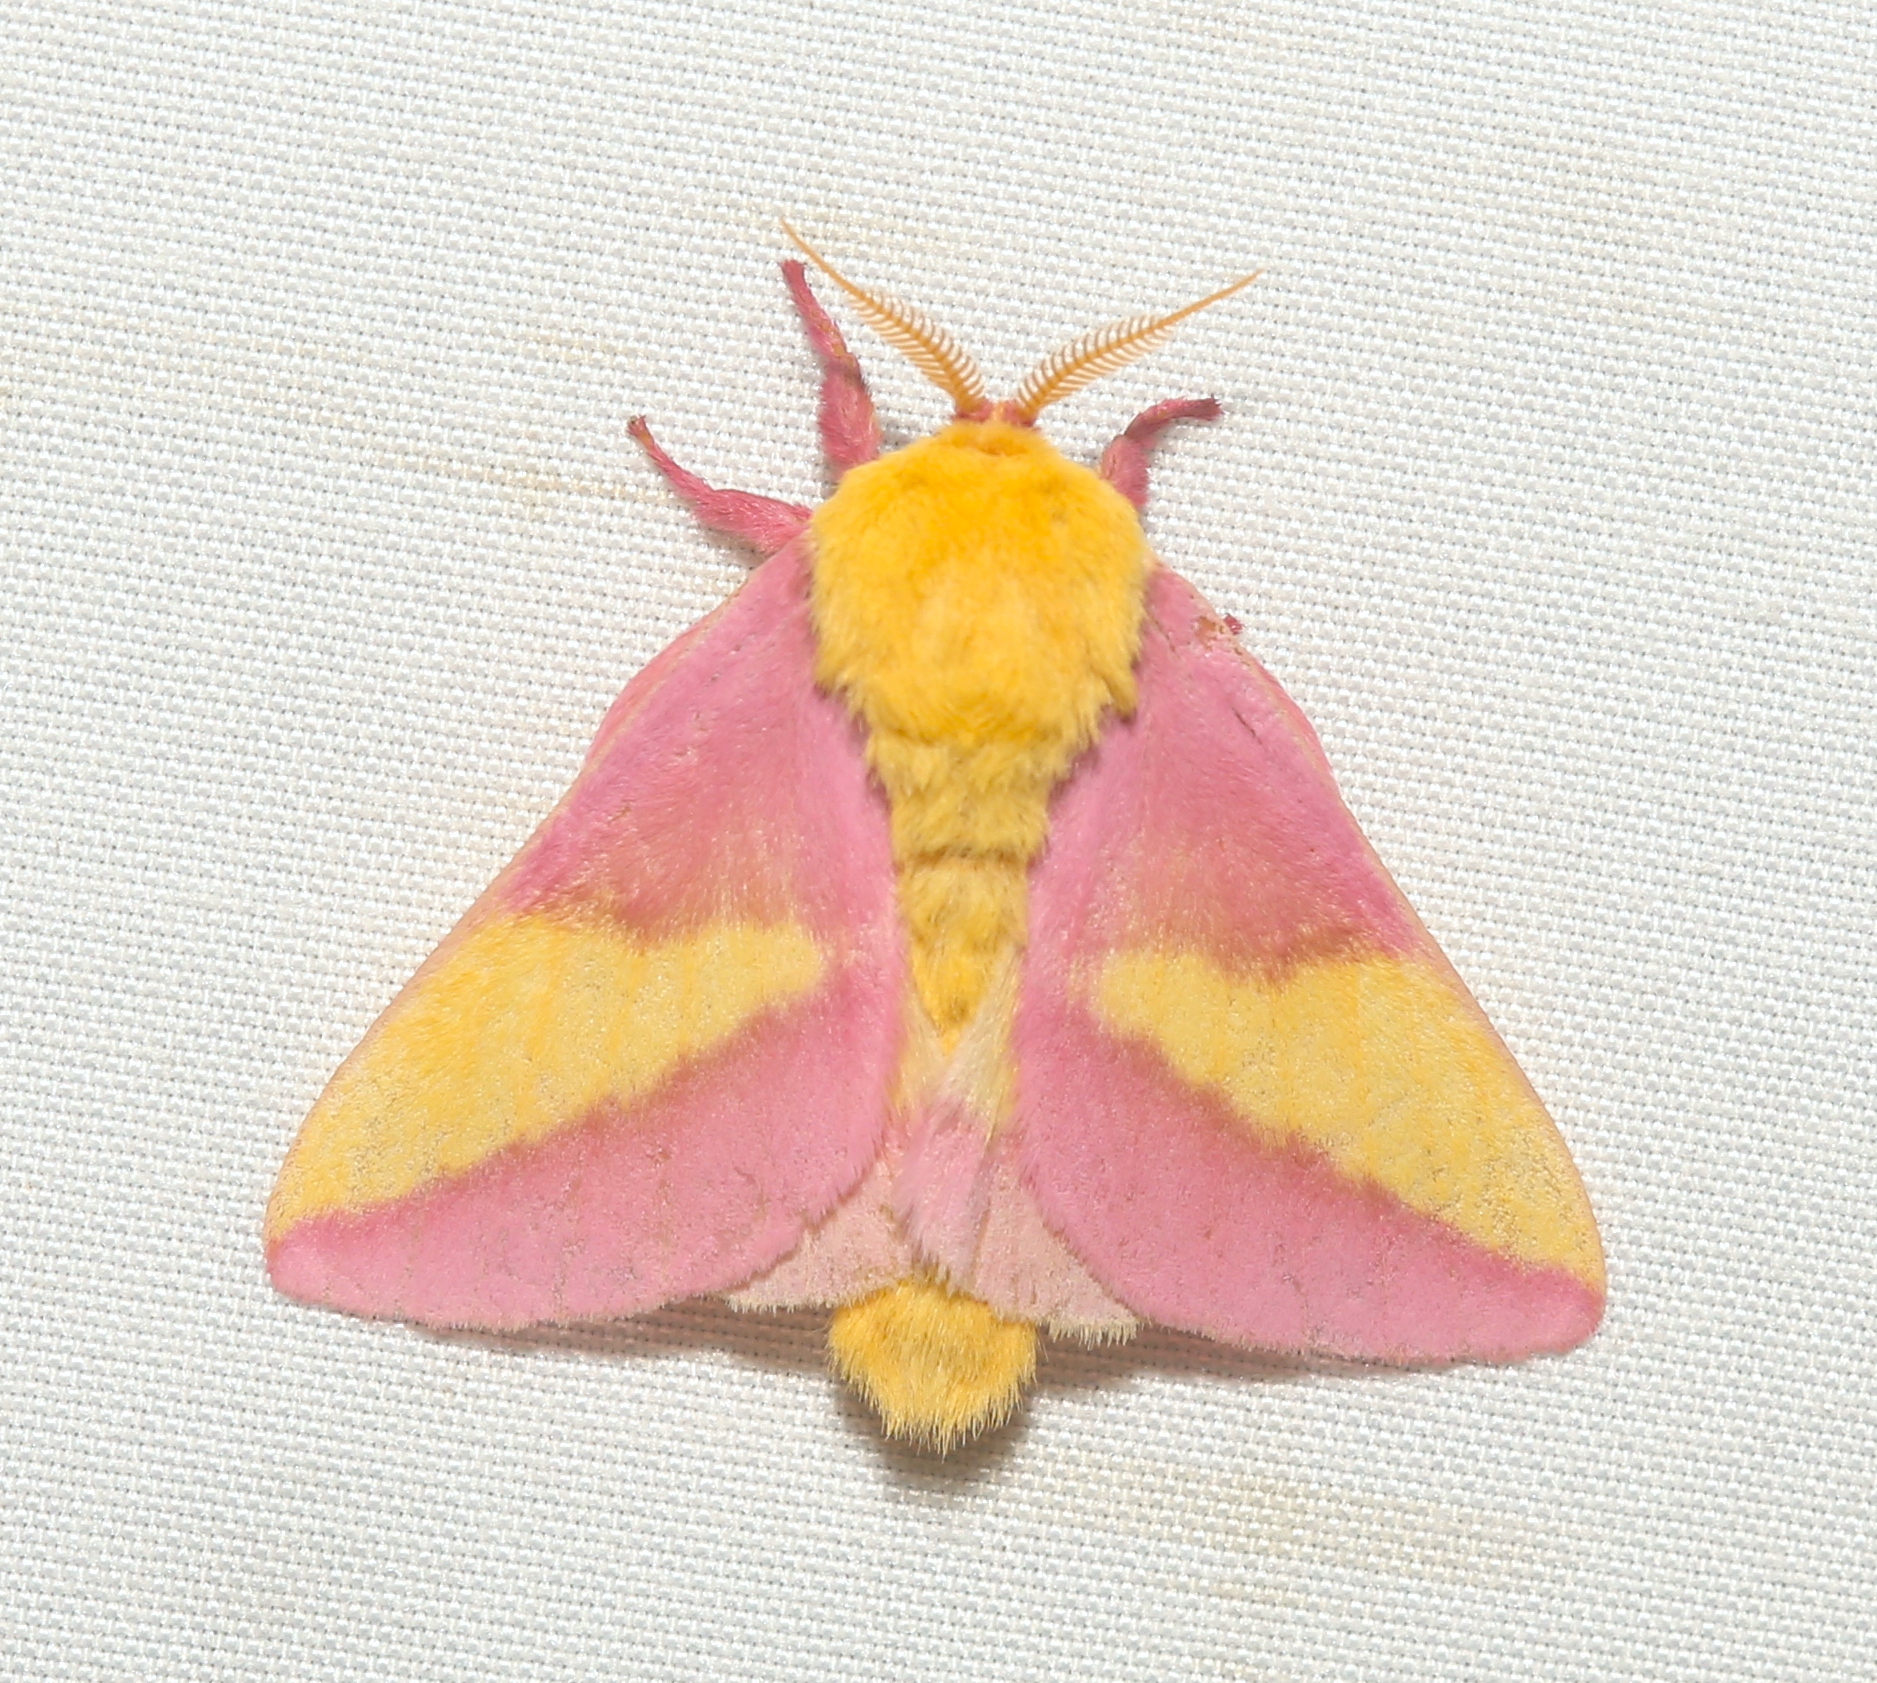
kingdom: Animalia
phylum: Arthropoda
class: Insecta
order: Lepidoptera
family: Saturniidae
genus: Dryocampa
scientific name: Dryocampa rubicunda
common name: Rosy maple moth
